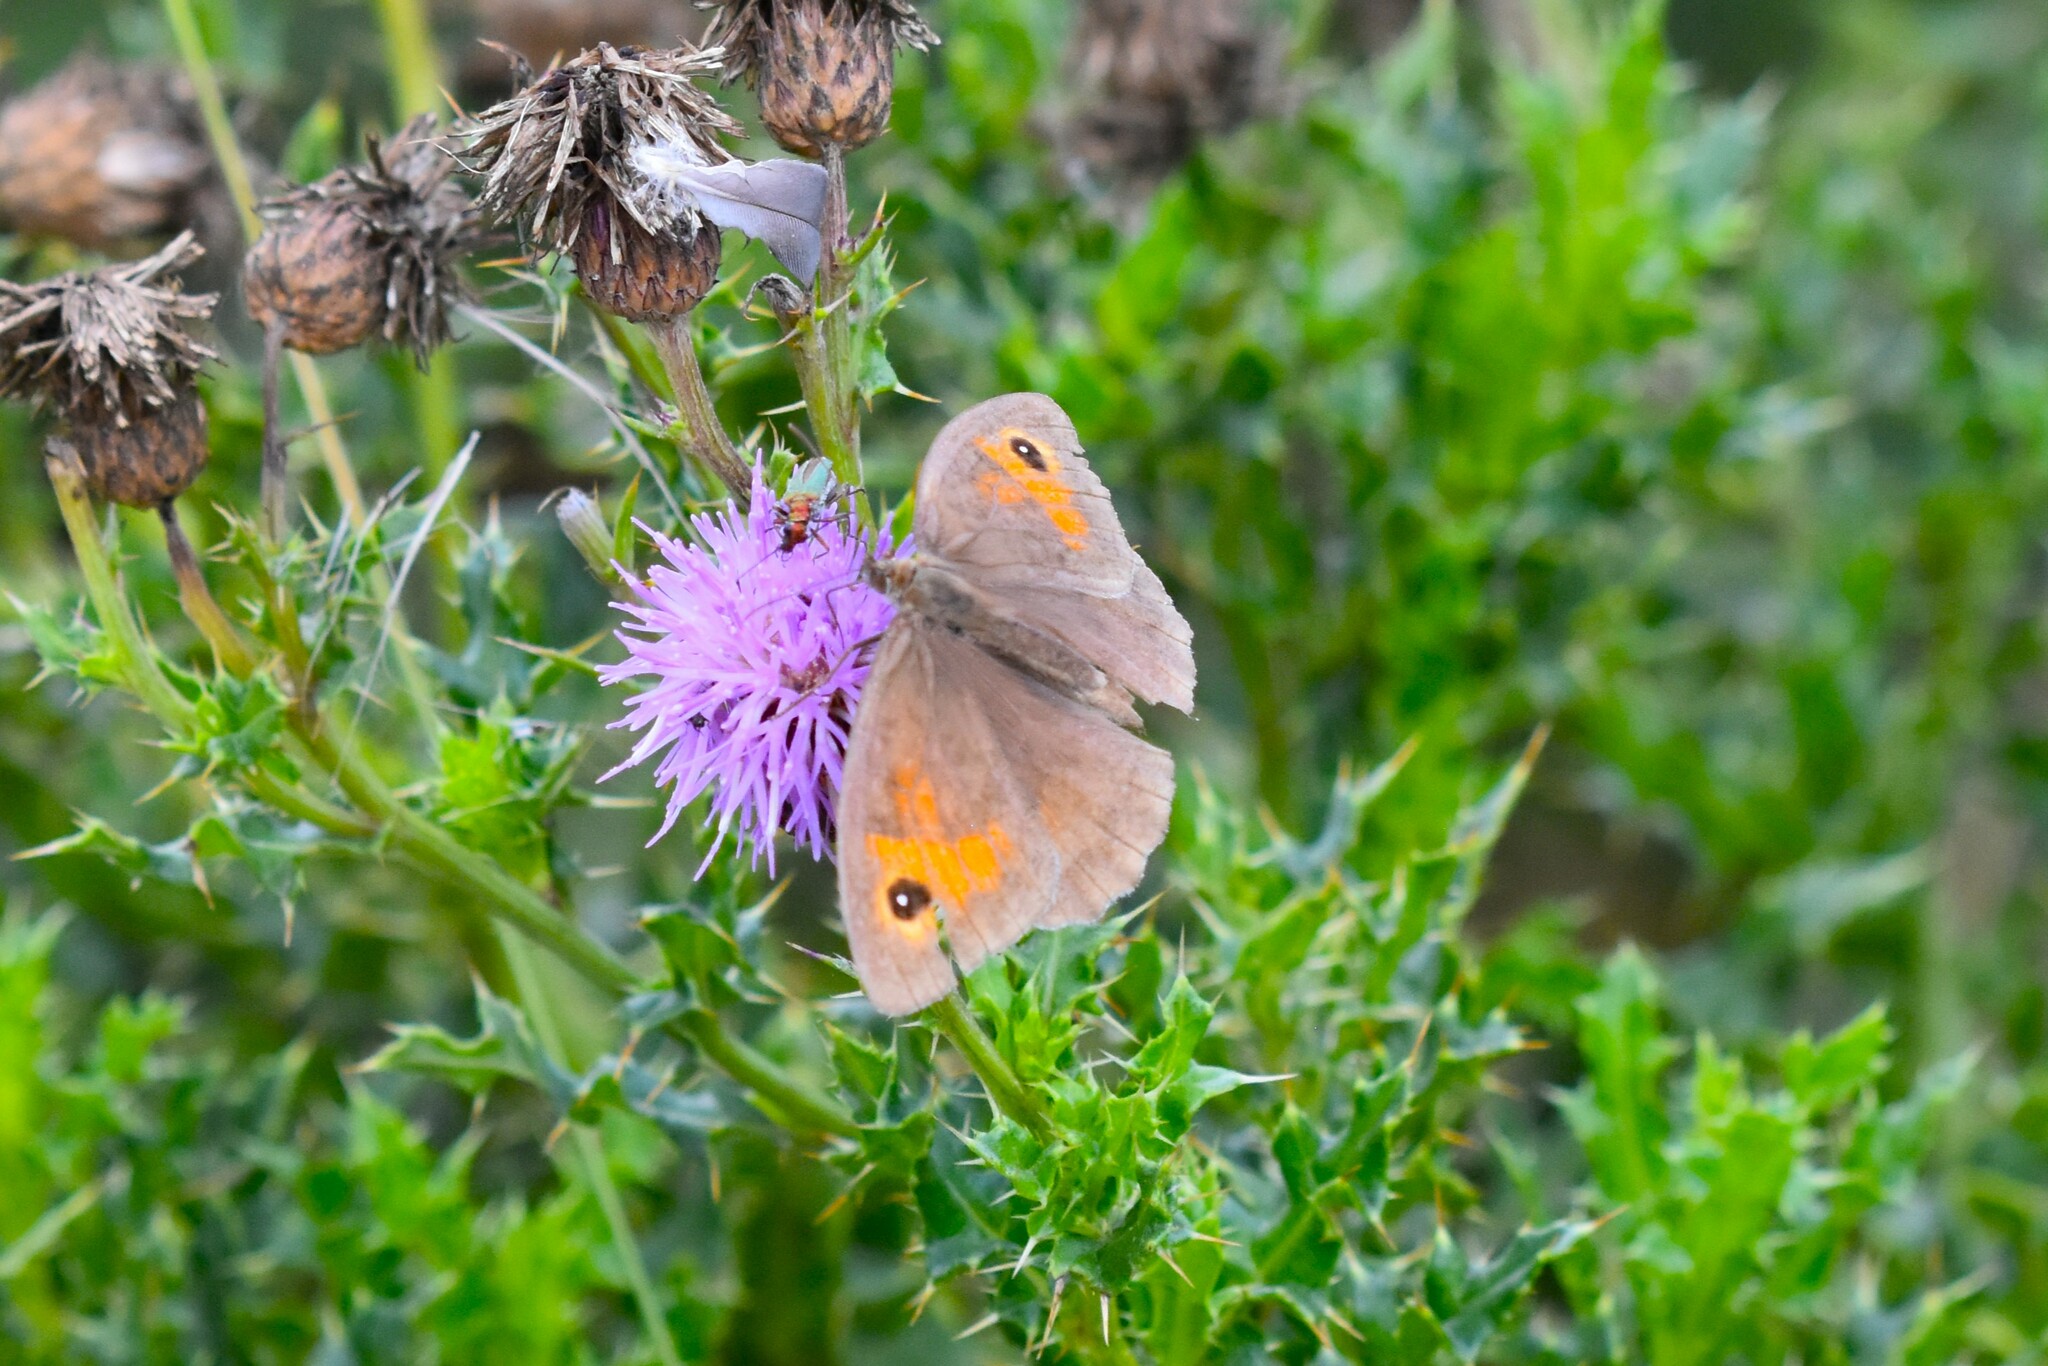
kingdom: Animalia
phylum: Arthropoda
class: Insecta
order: Lepidoptera
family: Nymphalidae
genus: Maniola
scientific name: Maniola jurtina
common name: Meadow brown
